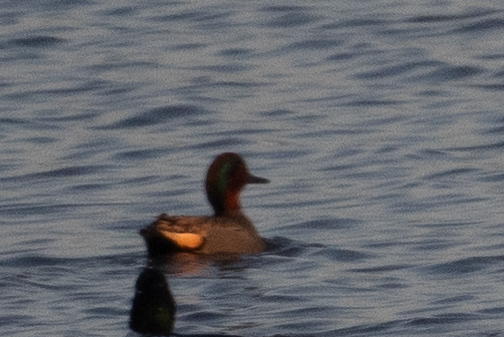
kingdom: Animalia
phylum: Chordata
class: Aves
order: Anseriformes
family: Anatidae
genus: Anas
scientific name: Anas crecca
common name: Eurasian teal
